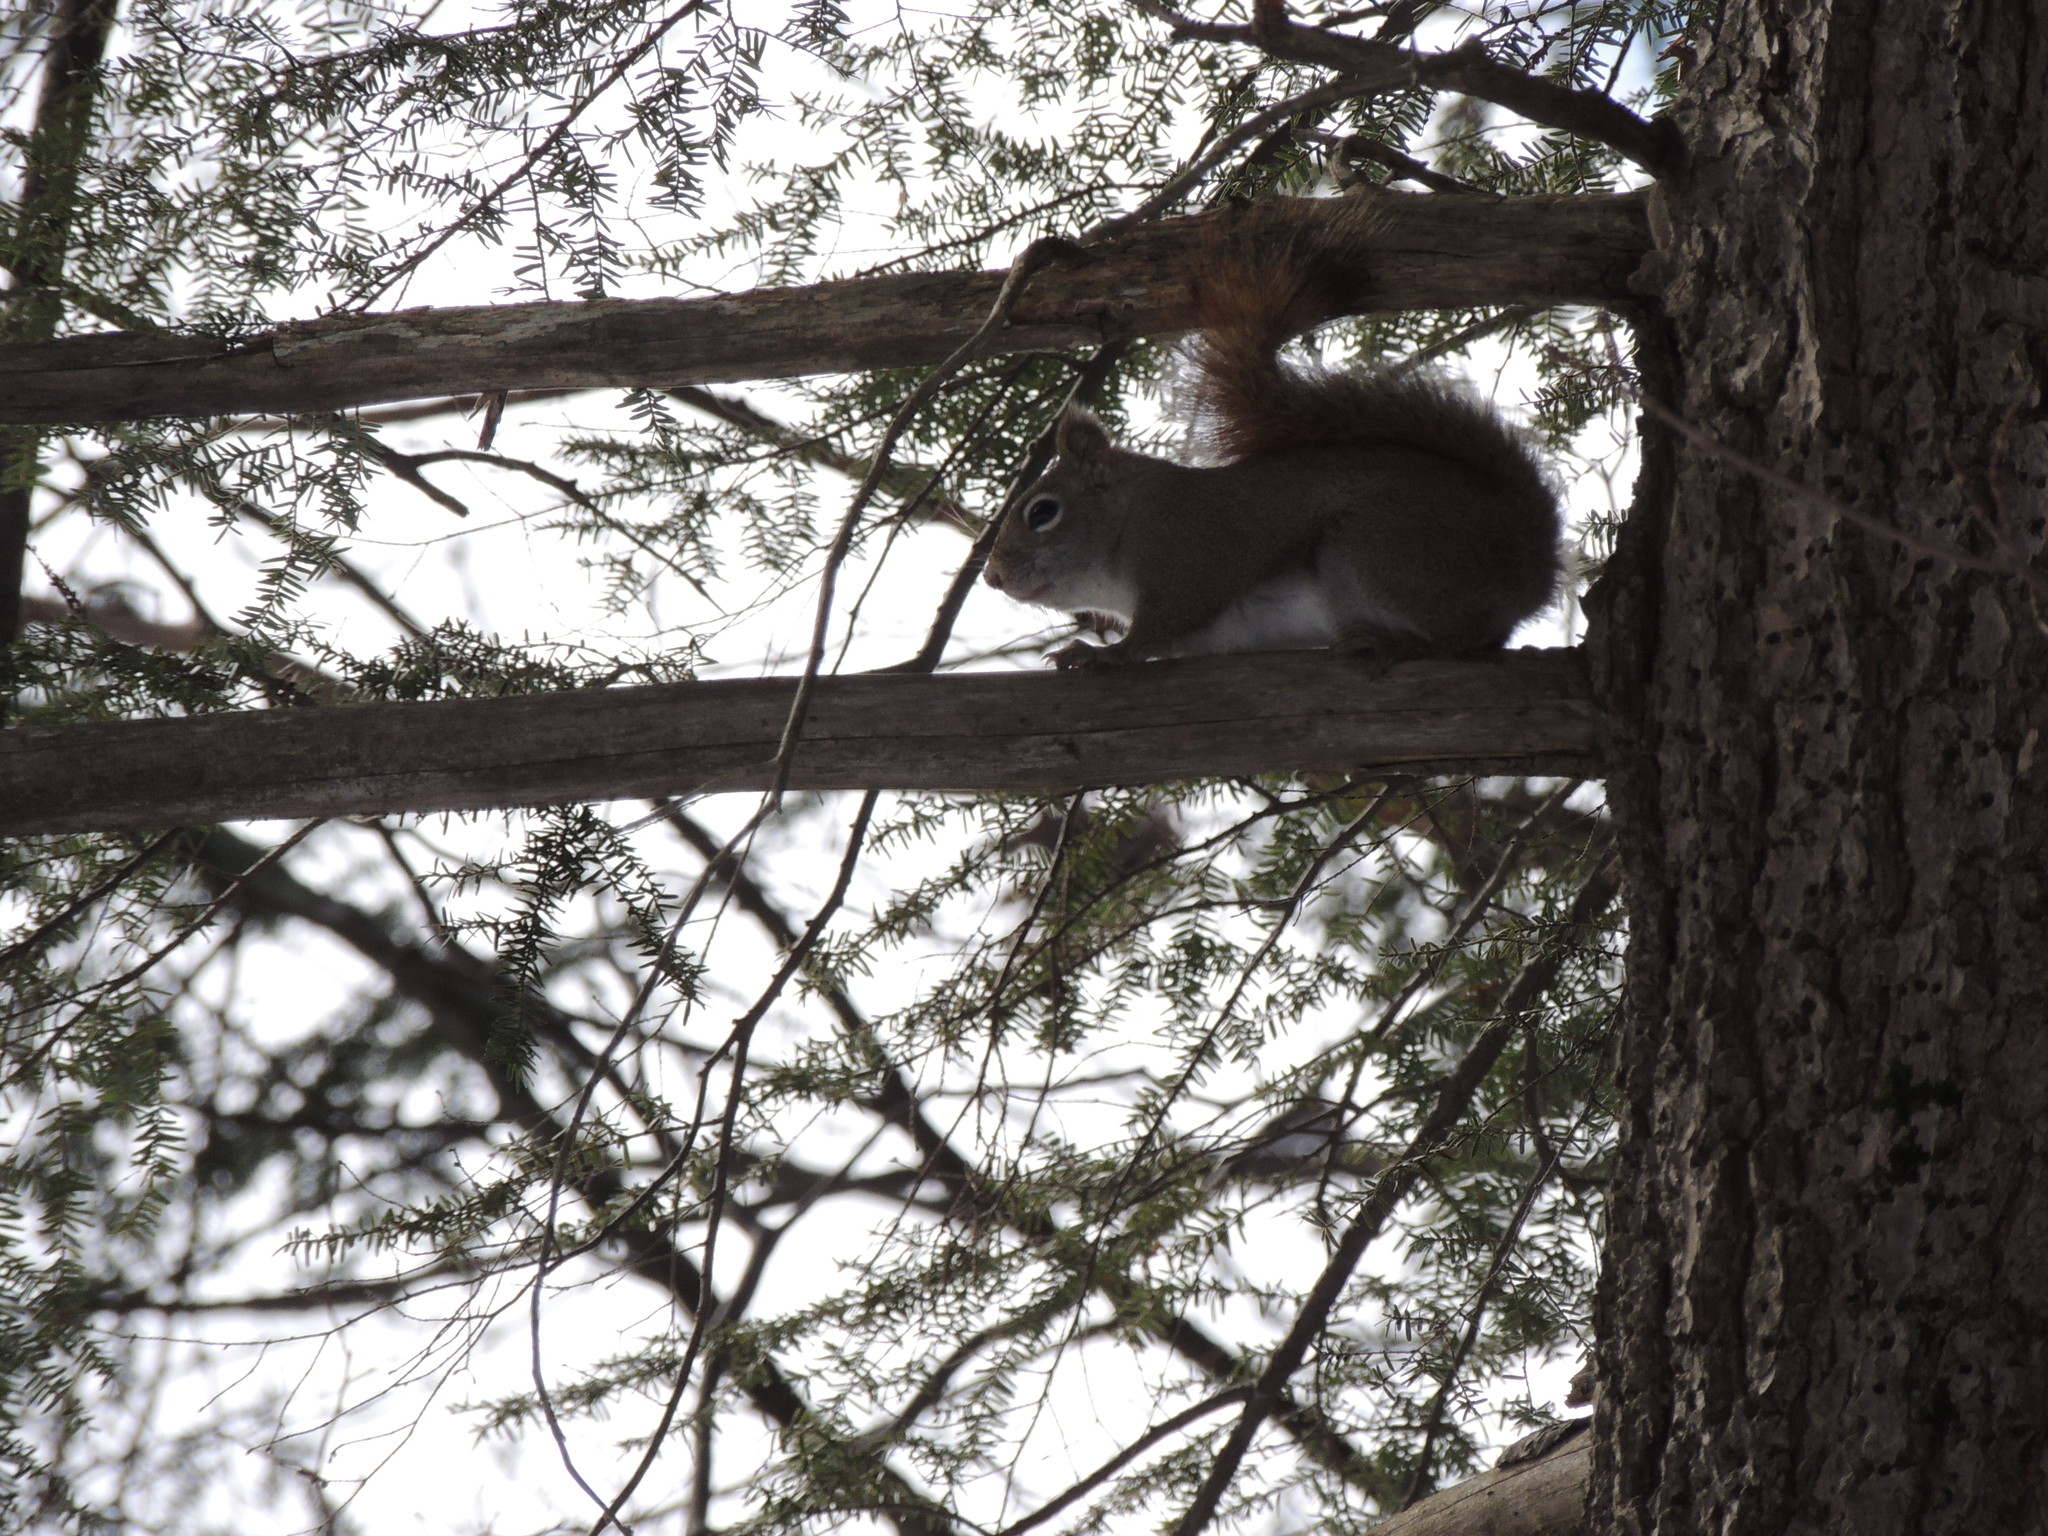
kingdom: Animalia
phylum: Chordata
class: Mammalia
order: Rodentia
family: Sciuridae
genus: Tamiasciurus
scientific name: Tamiasciurus hudsonicus
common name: Red squirrel
